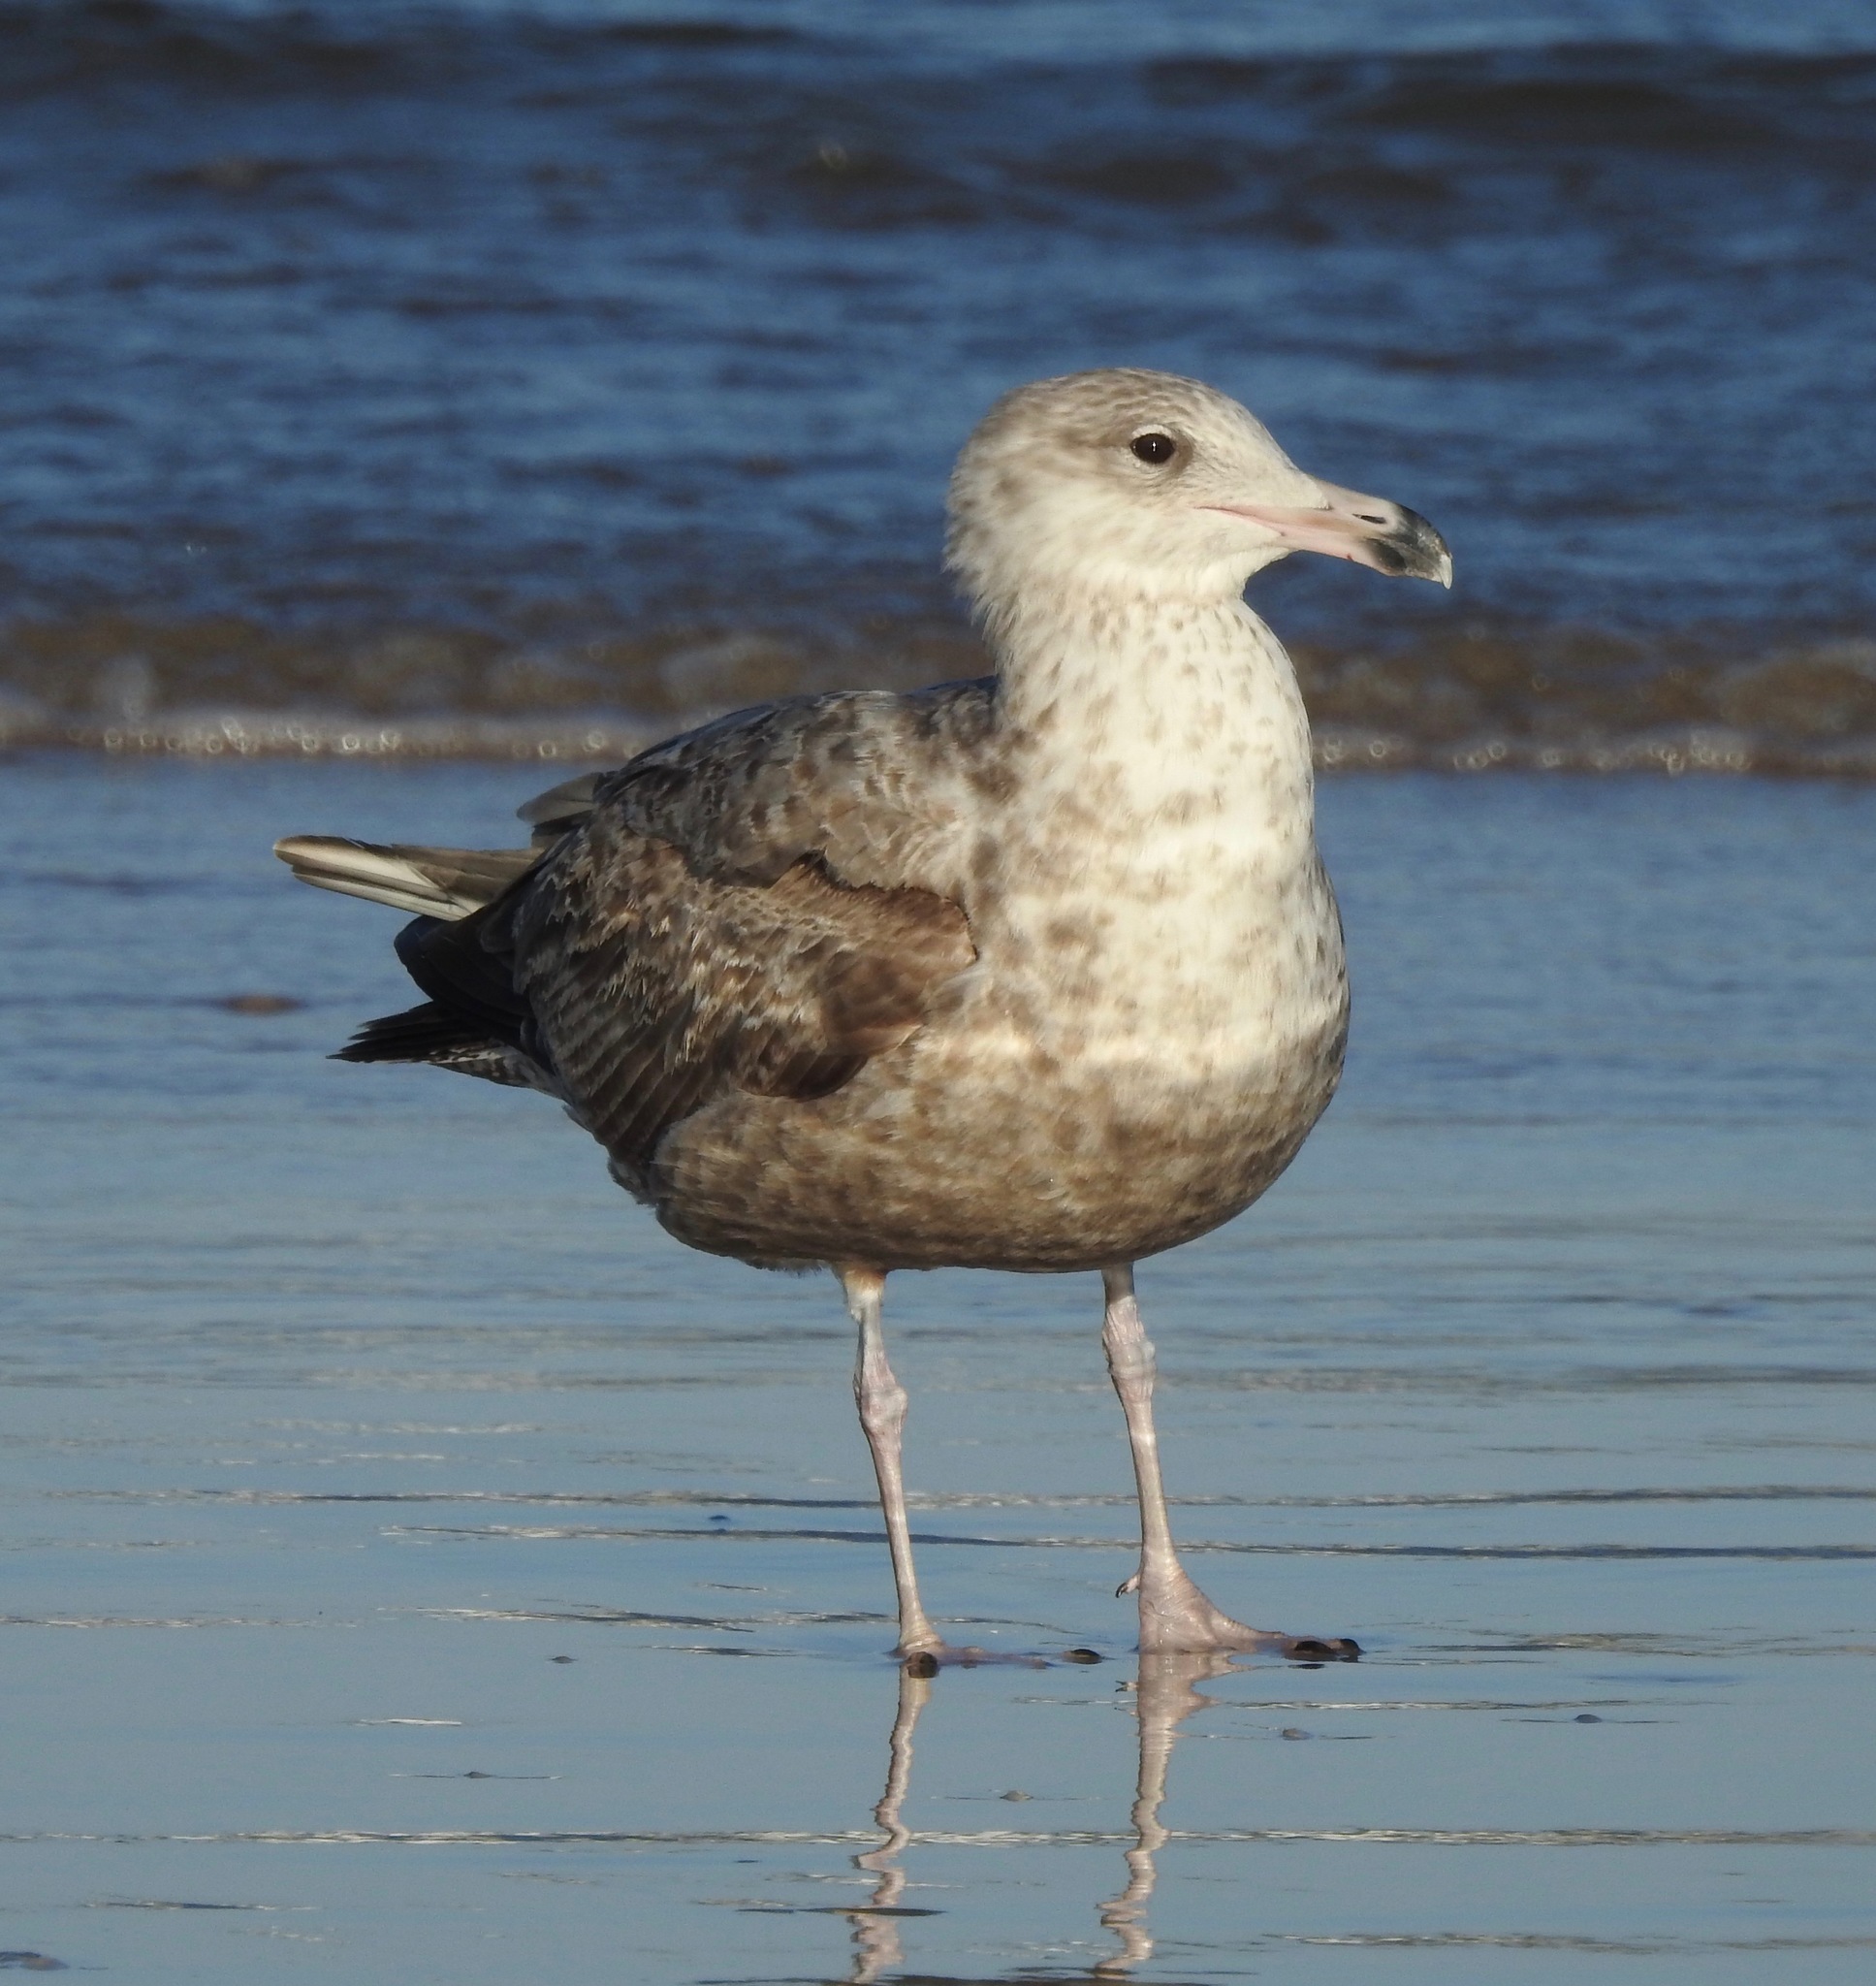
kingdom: Animalia
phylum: Chordata
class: Aves
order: Charadriiformes
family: Laridae
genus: Larus
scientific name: Larus argentatus
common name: Herring gull
